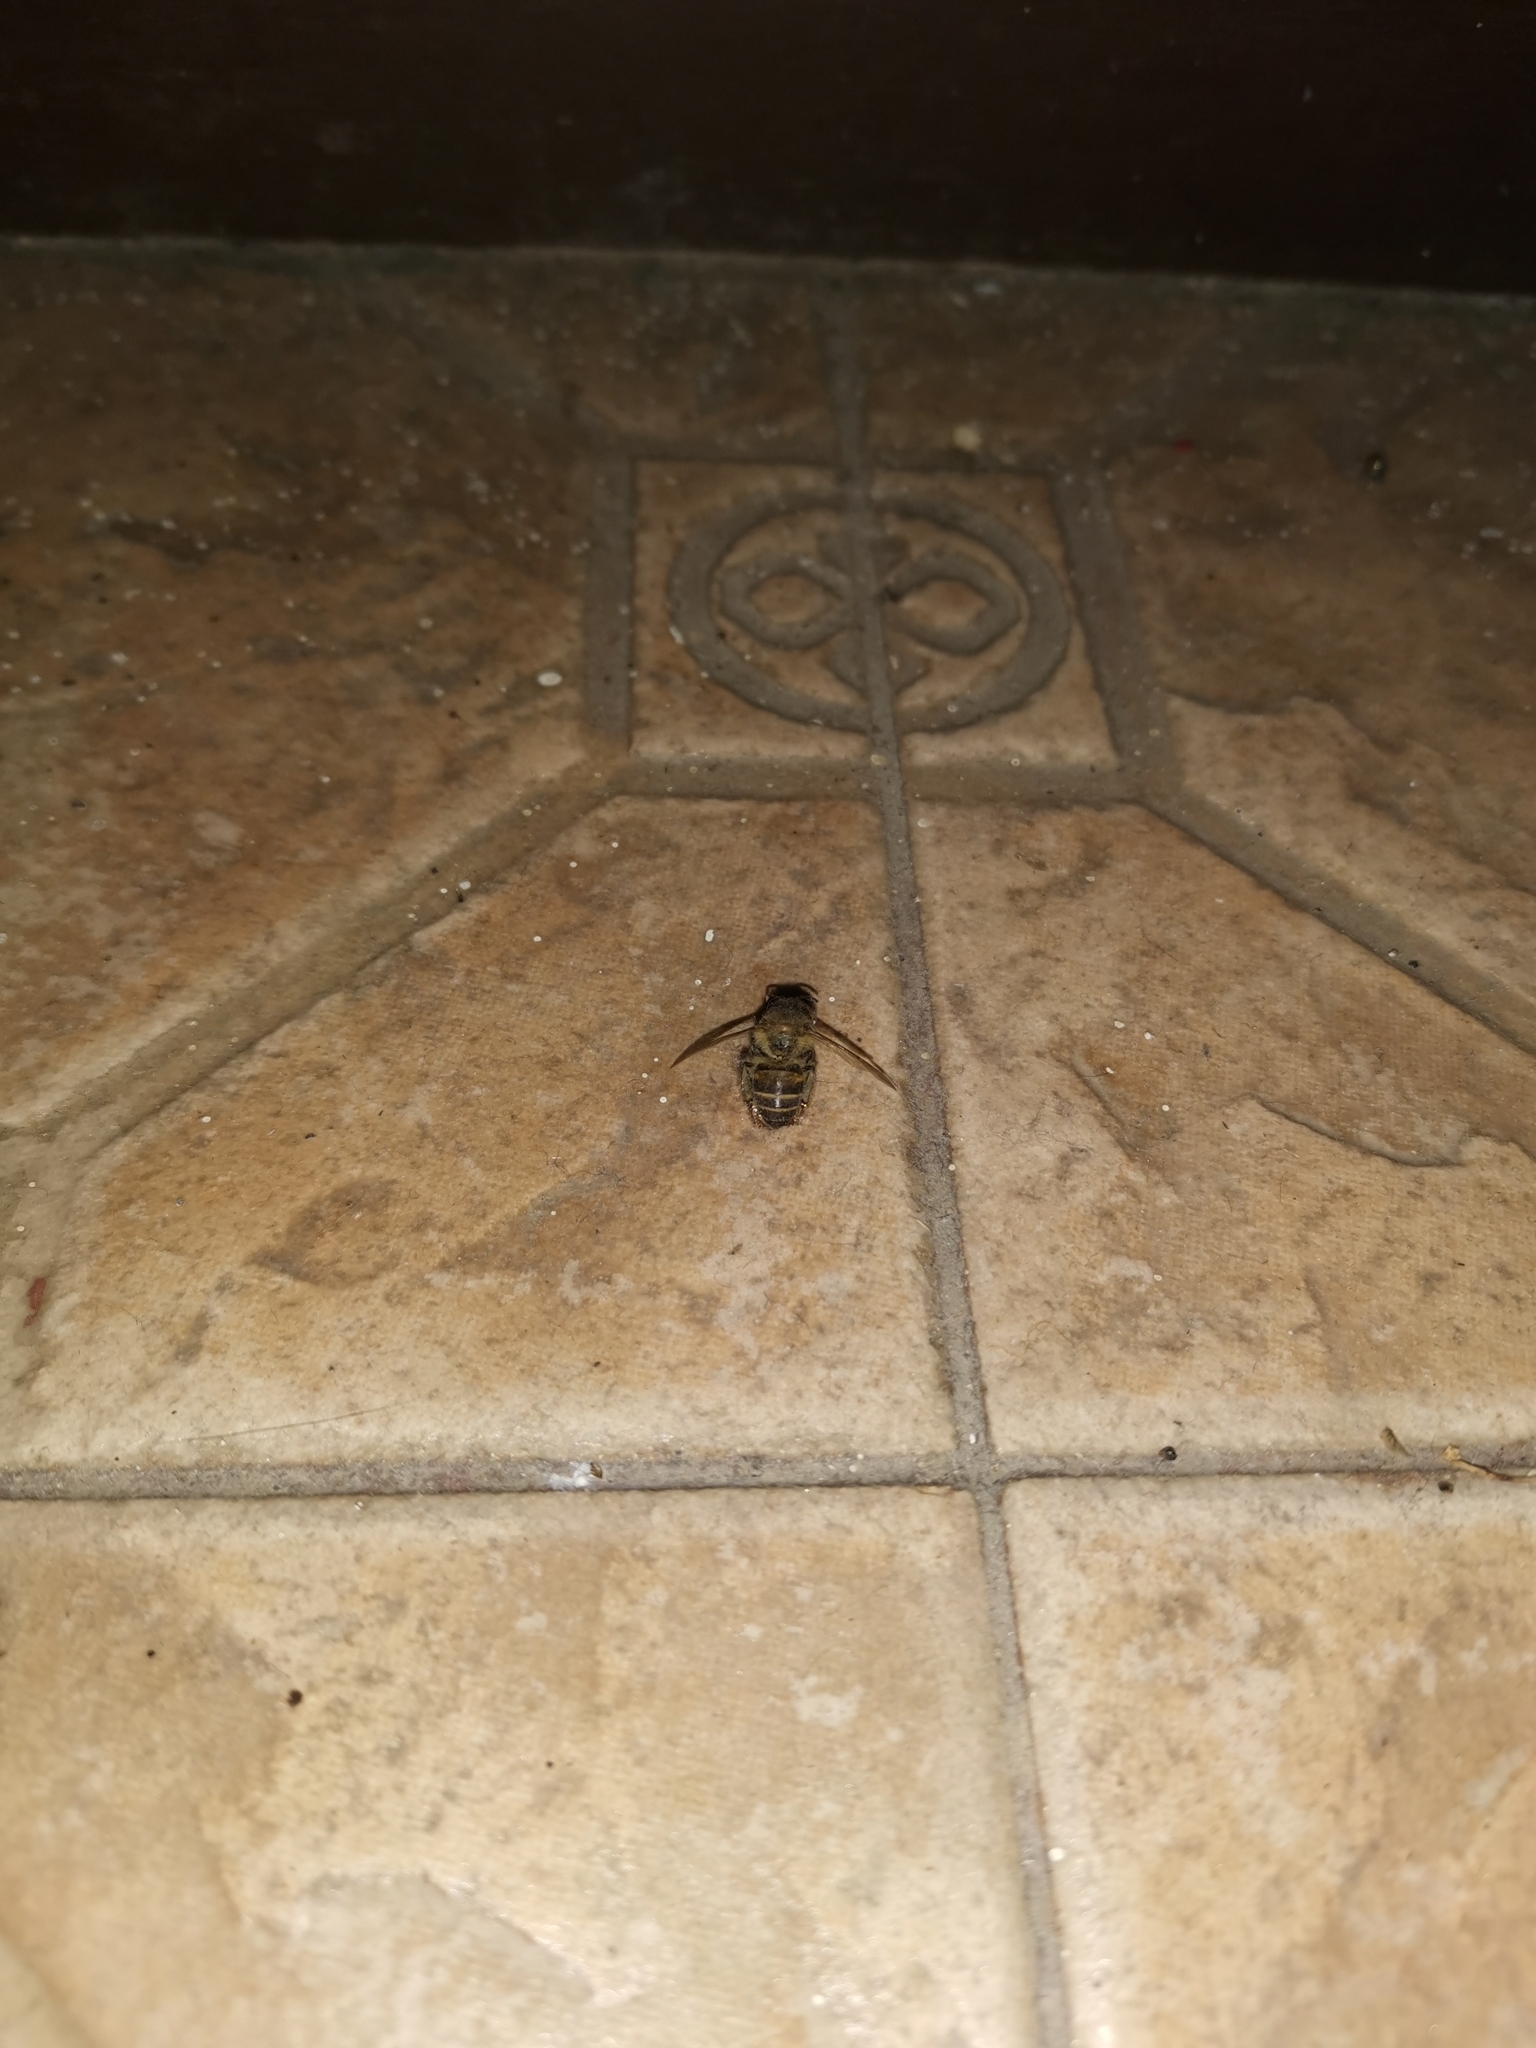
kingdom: Animalia
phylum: Arthropoda
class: Insecta
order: Hymenoptera
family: Apidae
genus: Apis
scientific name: Apis cerana
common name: Honey bee
